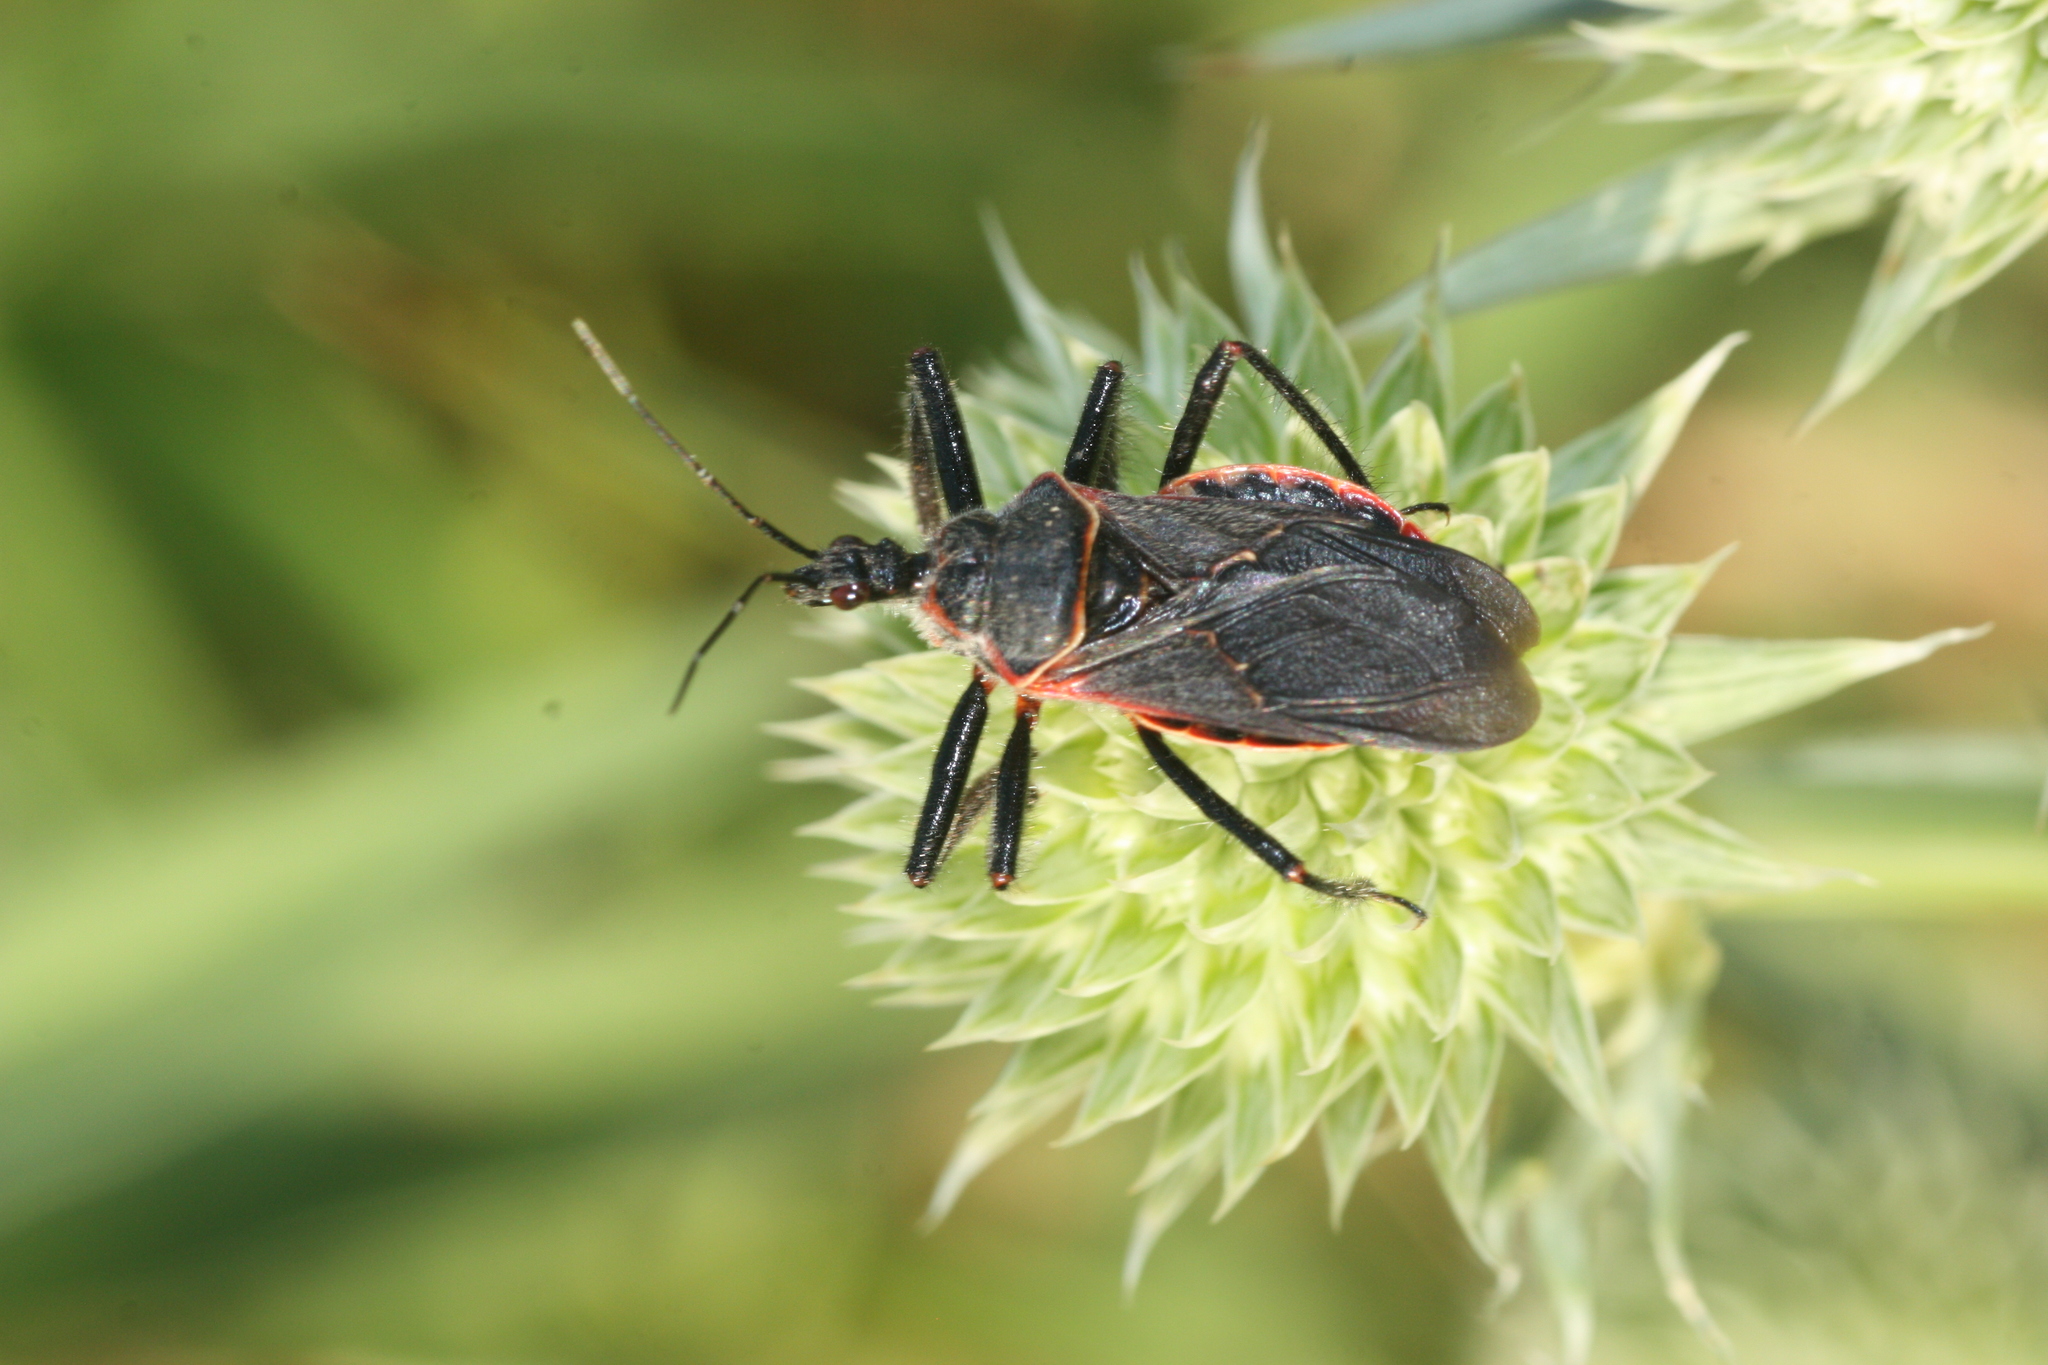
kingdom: Animalia
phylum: Arthropoda
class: Insecta
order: Hemiptera
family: Reduviidae
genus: Apiomerus
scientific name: Apiomerus crassipes
